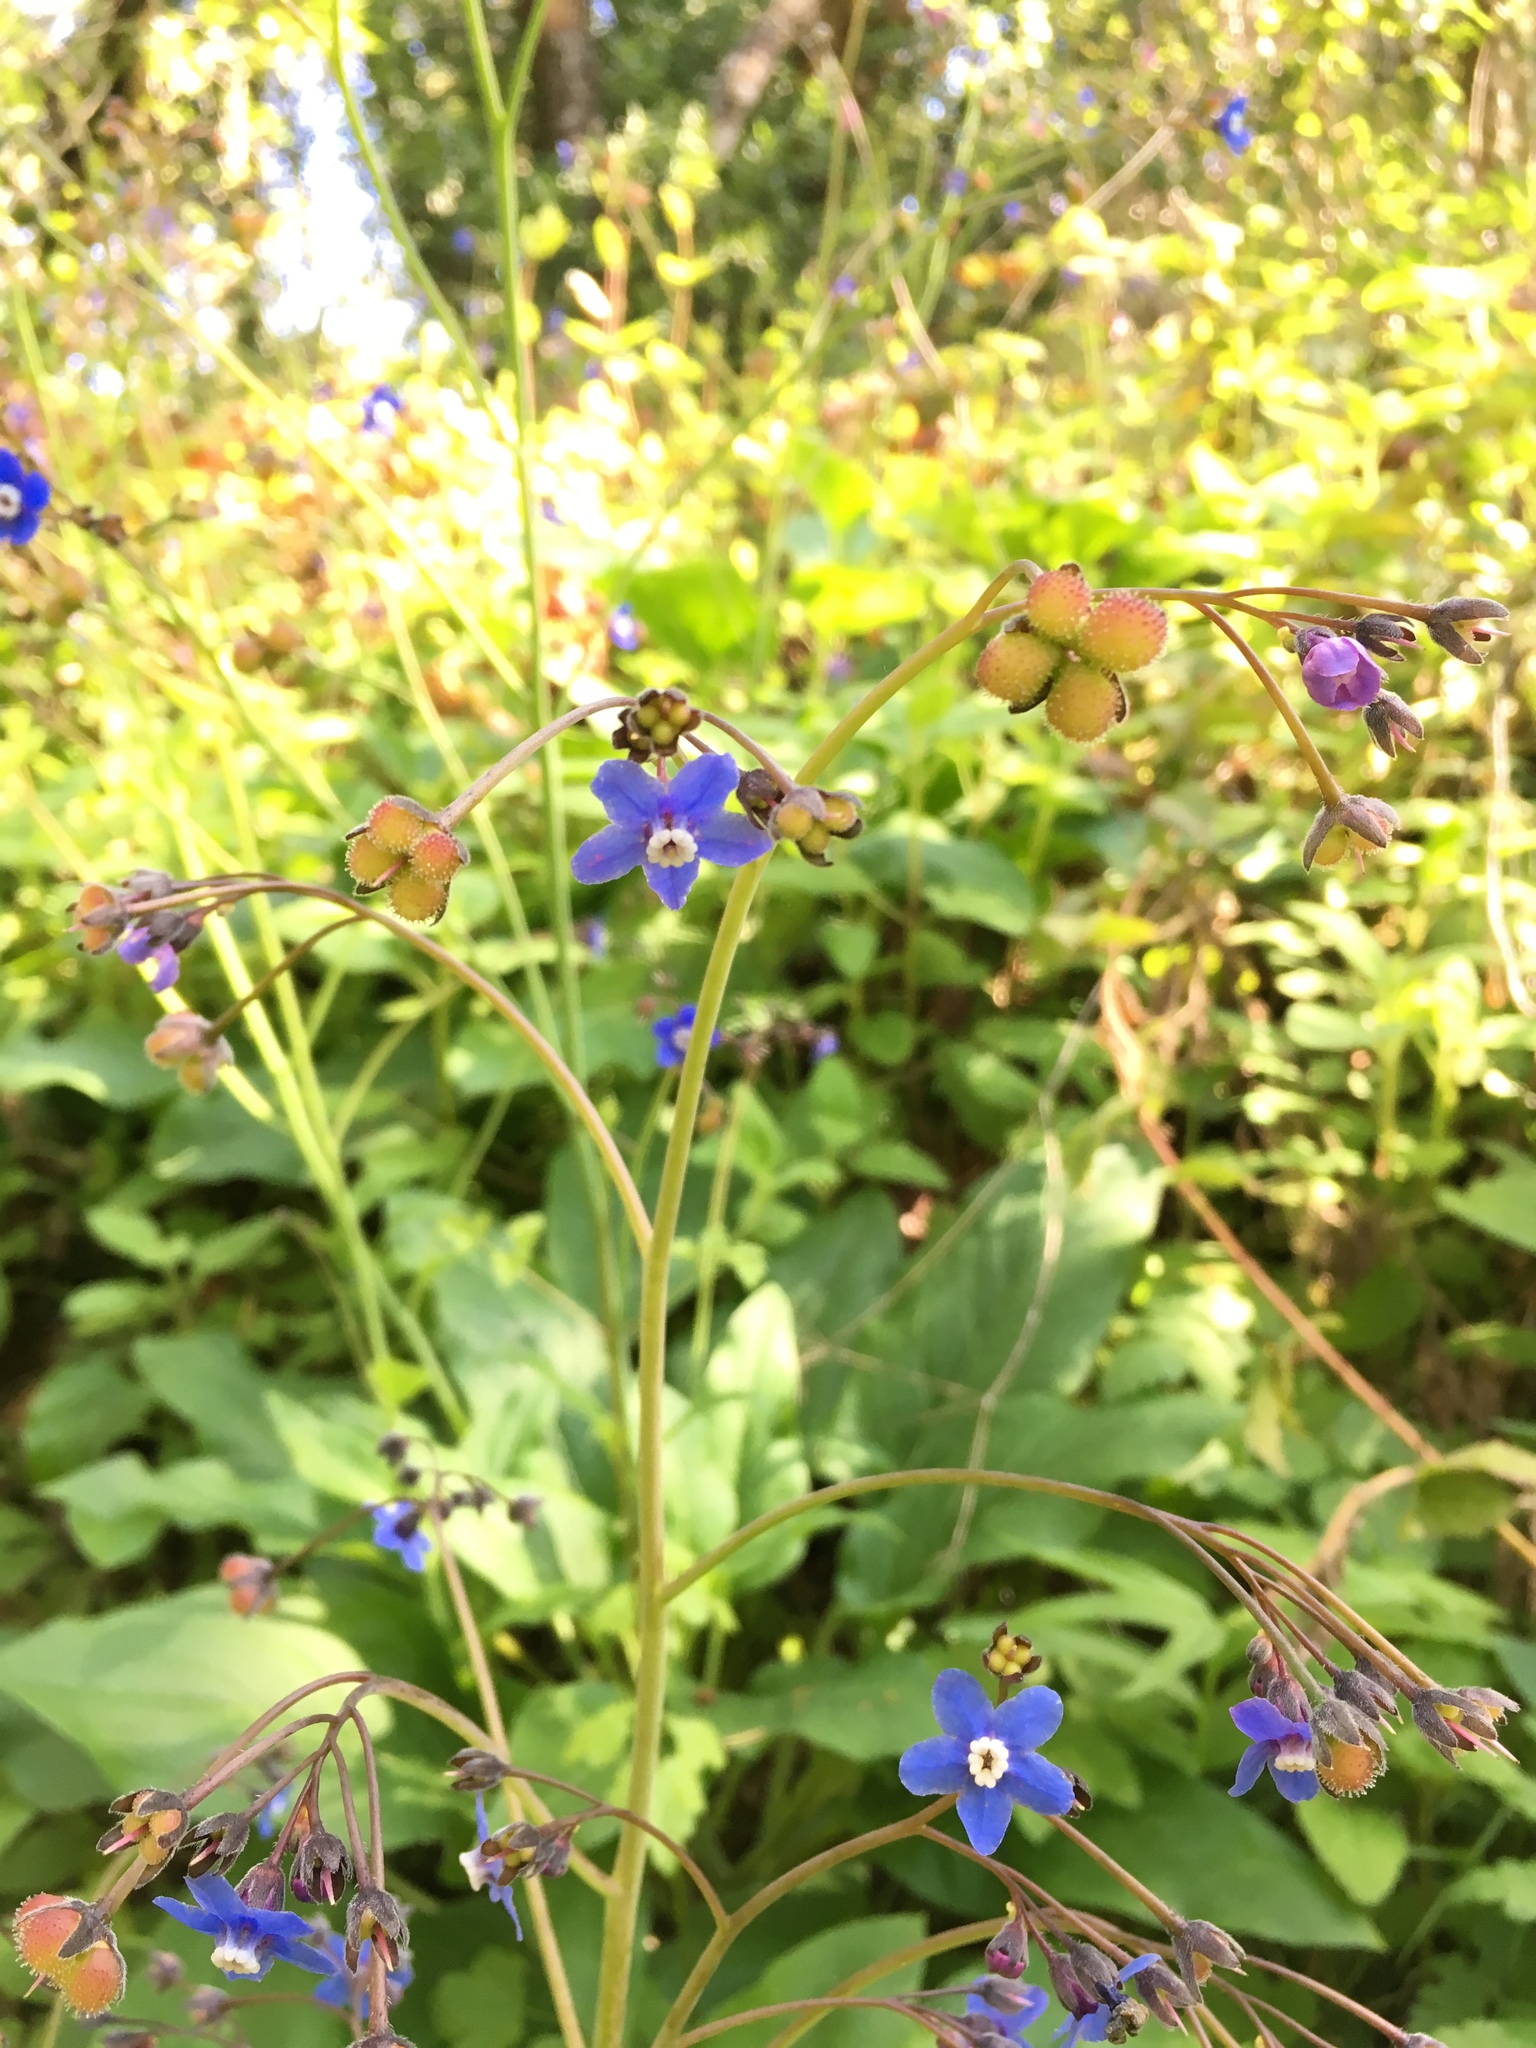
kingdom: Plantae
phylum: Tracheophyta
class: Magnoliopsida
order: Boraginales
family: Boraginaceae
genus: Adelinia
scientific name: Adelinia grande
